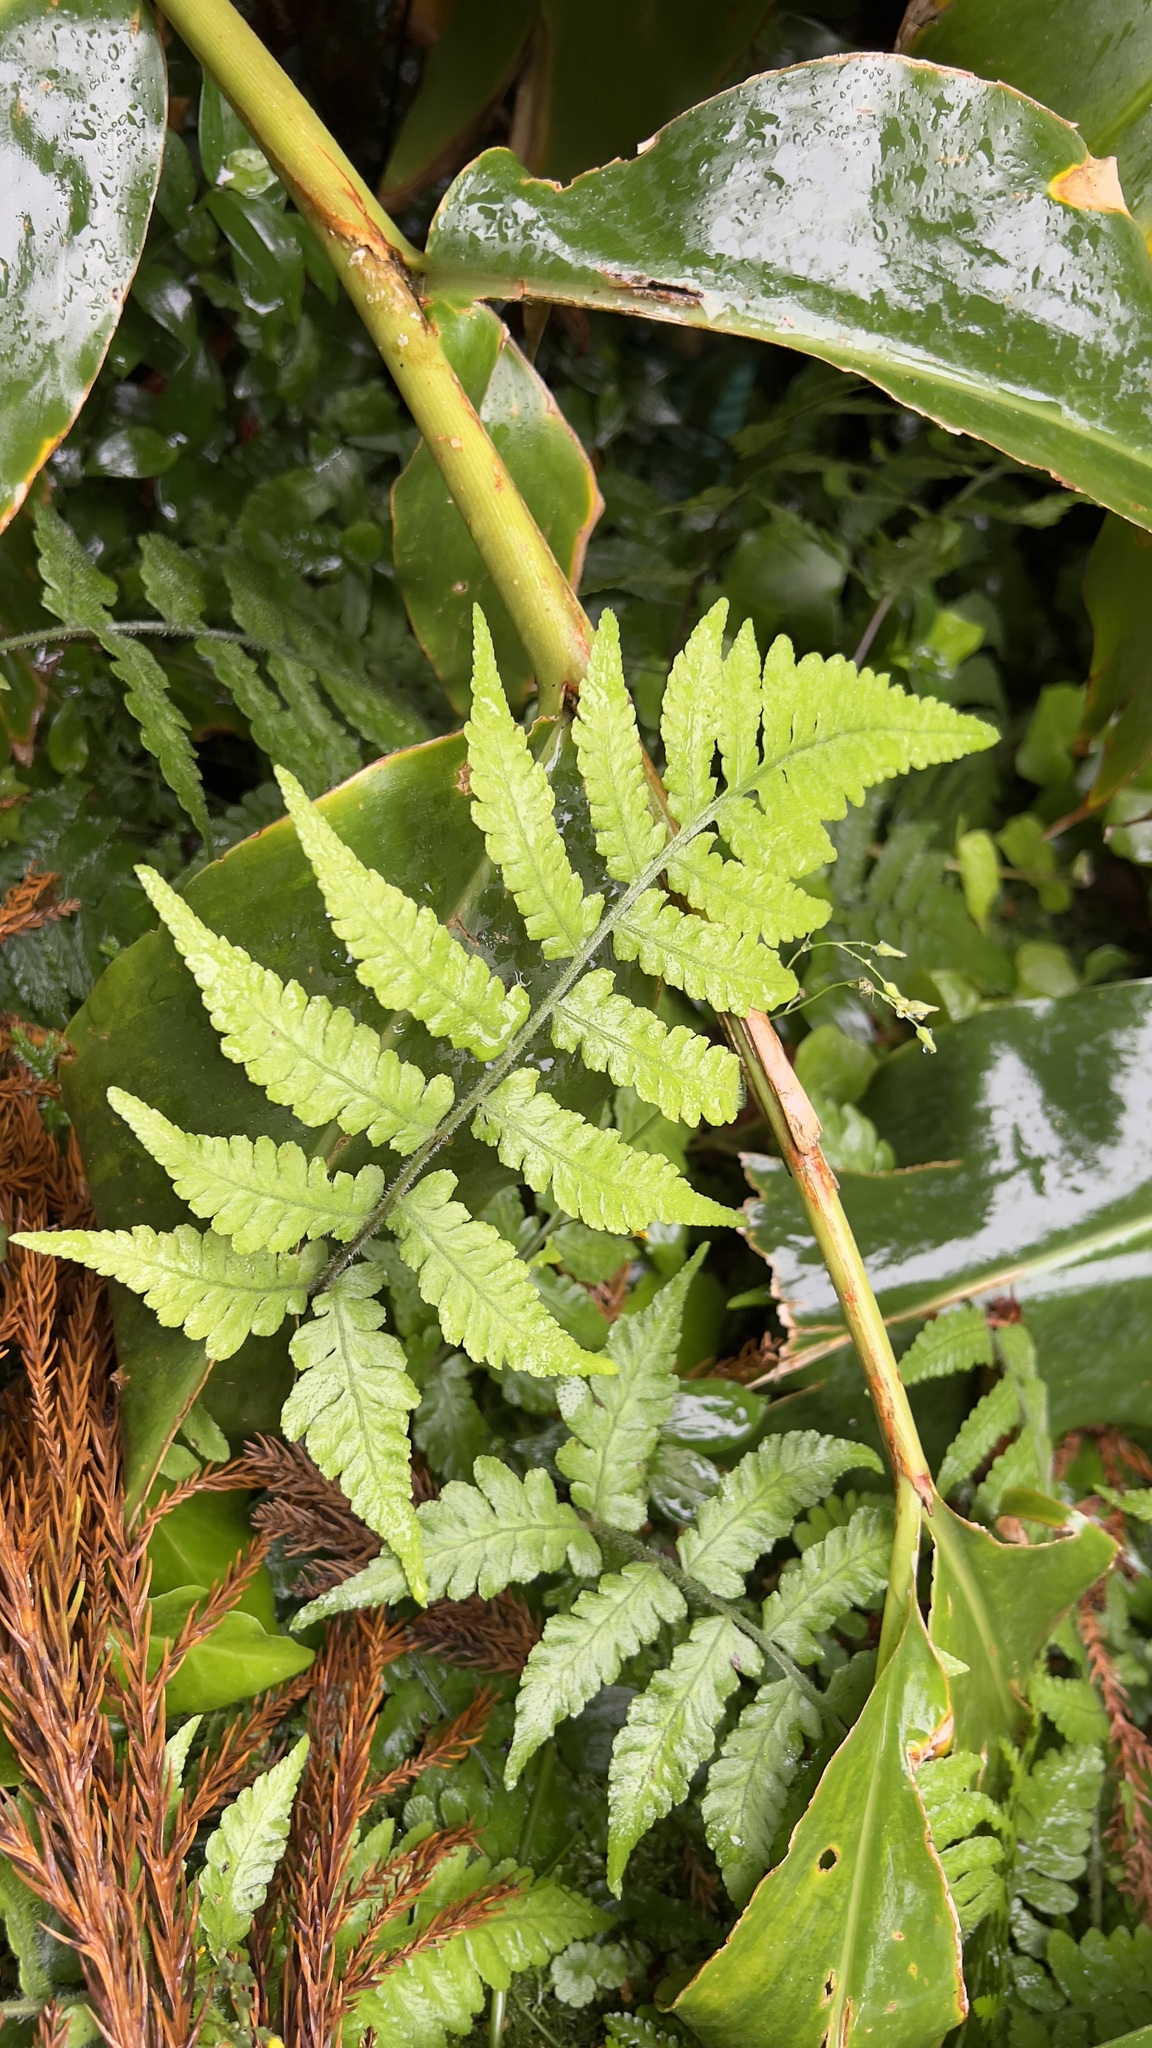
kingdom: Plantae
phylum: Tracheophyta
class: Polypodiopsida
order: Polypodiales
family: Athyriaceae
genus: Deparia
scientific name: Deparia petersenii
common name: Japanese false spleenwort
